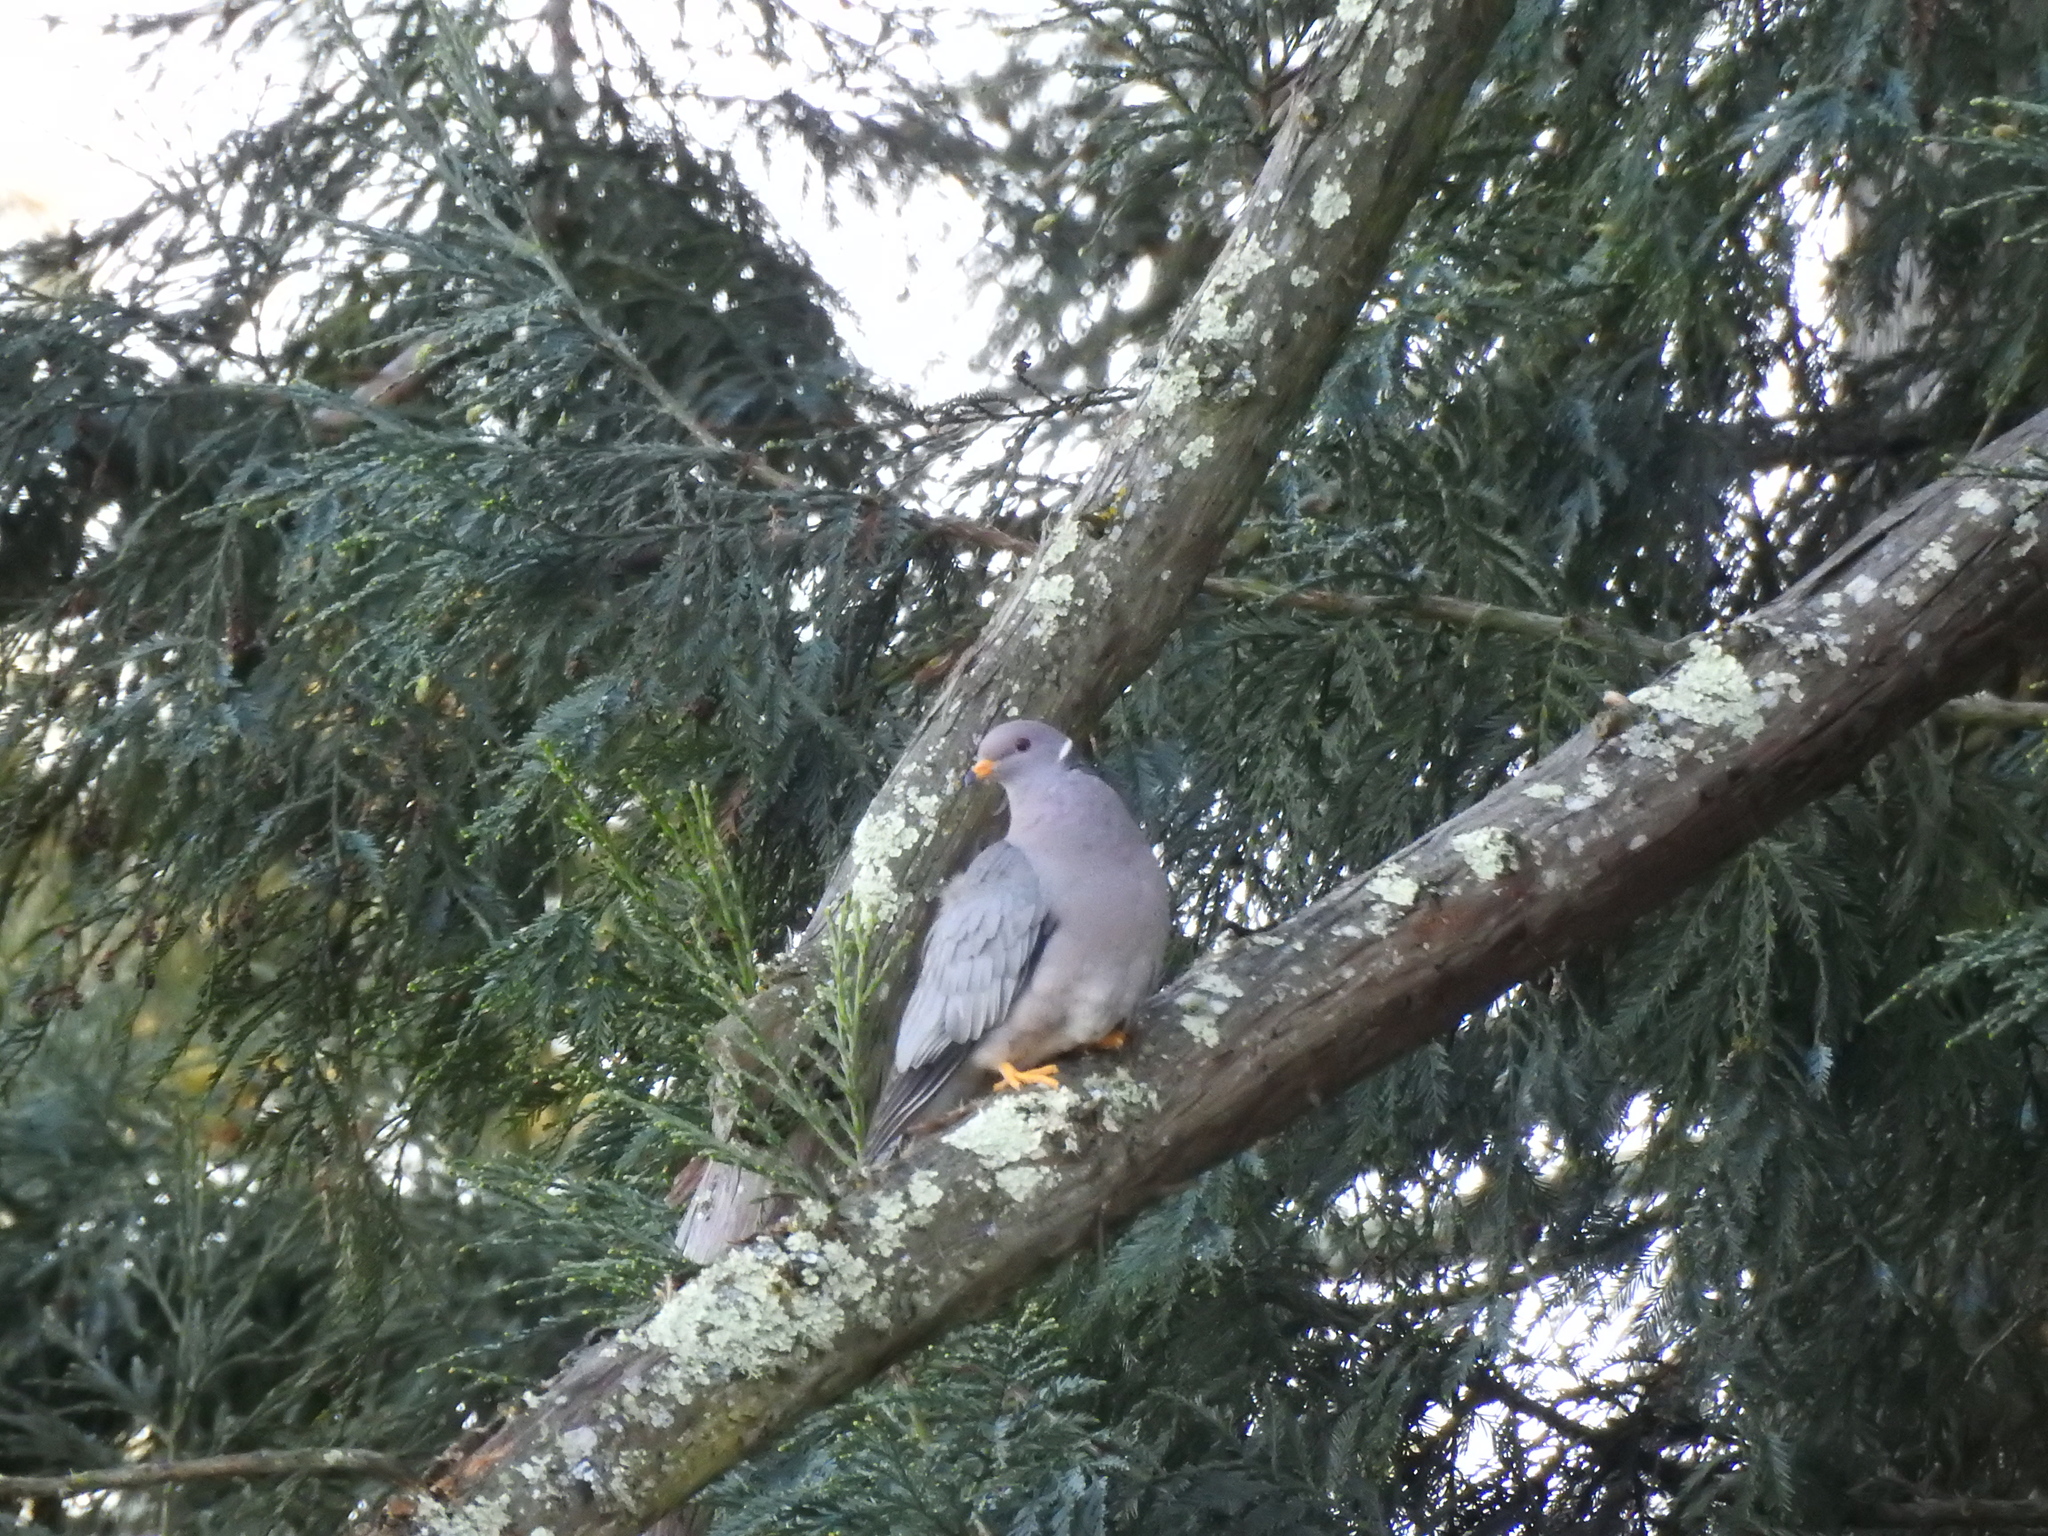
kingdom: Animalia
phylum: Chordata
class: Aves
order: Columbiformes
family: Columbidae
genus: Patagioenas
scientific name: Patagioenas fasciata
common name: Band-tailed pigeon
